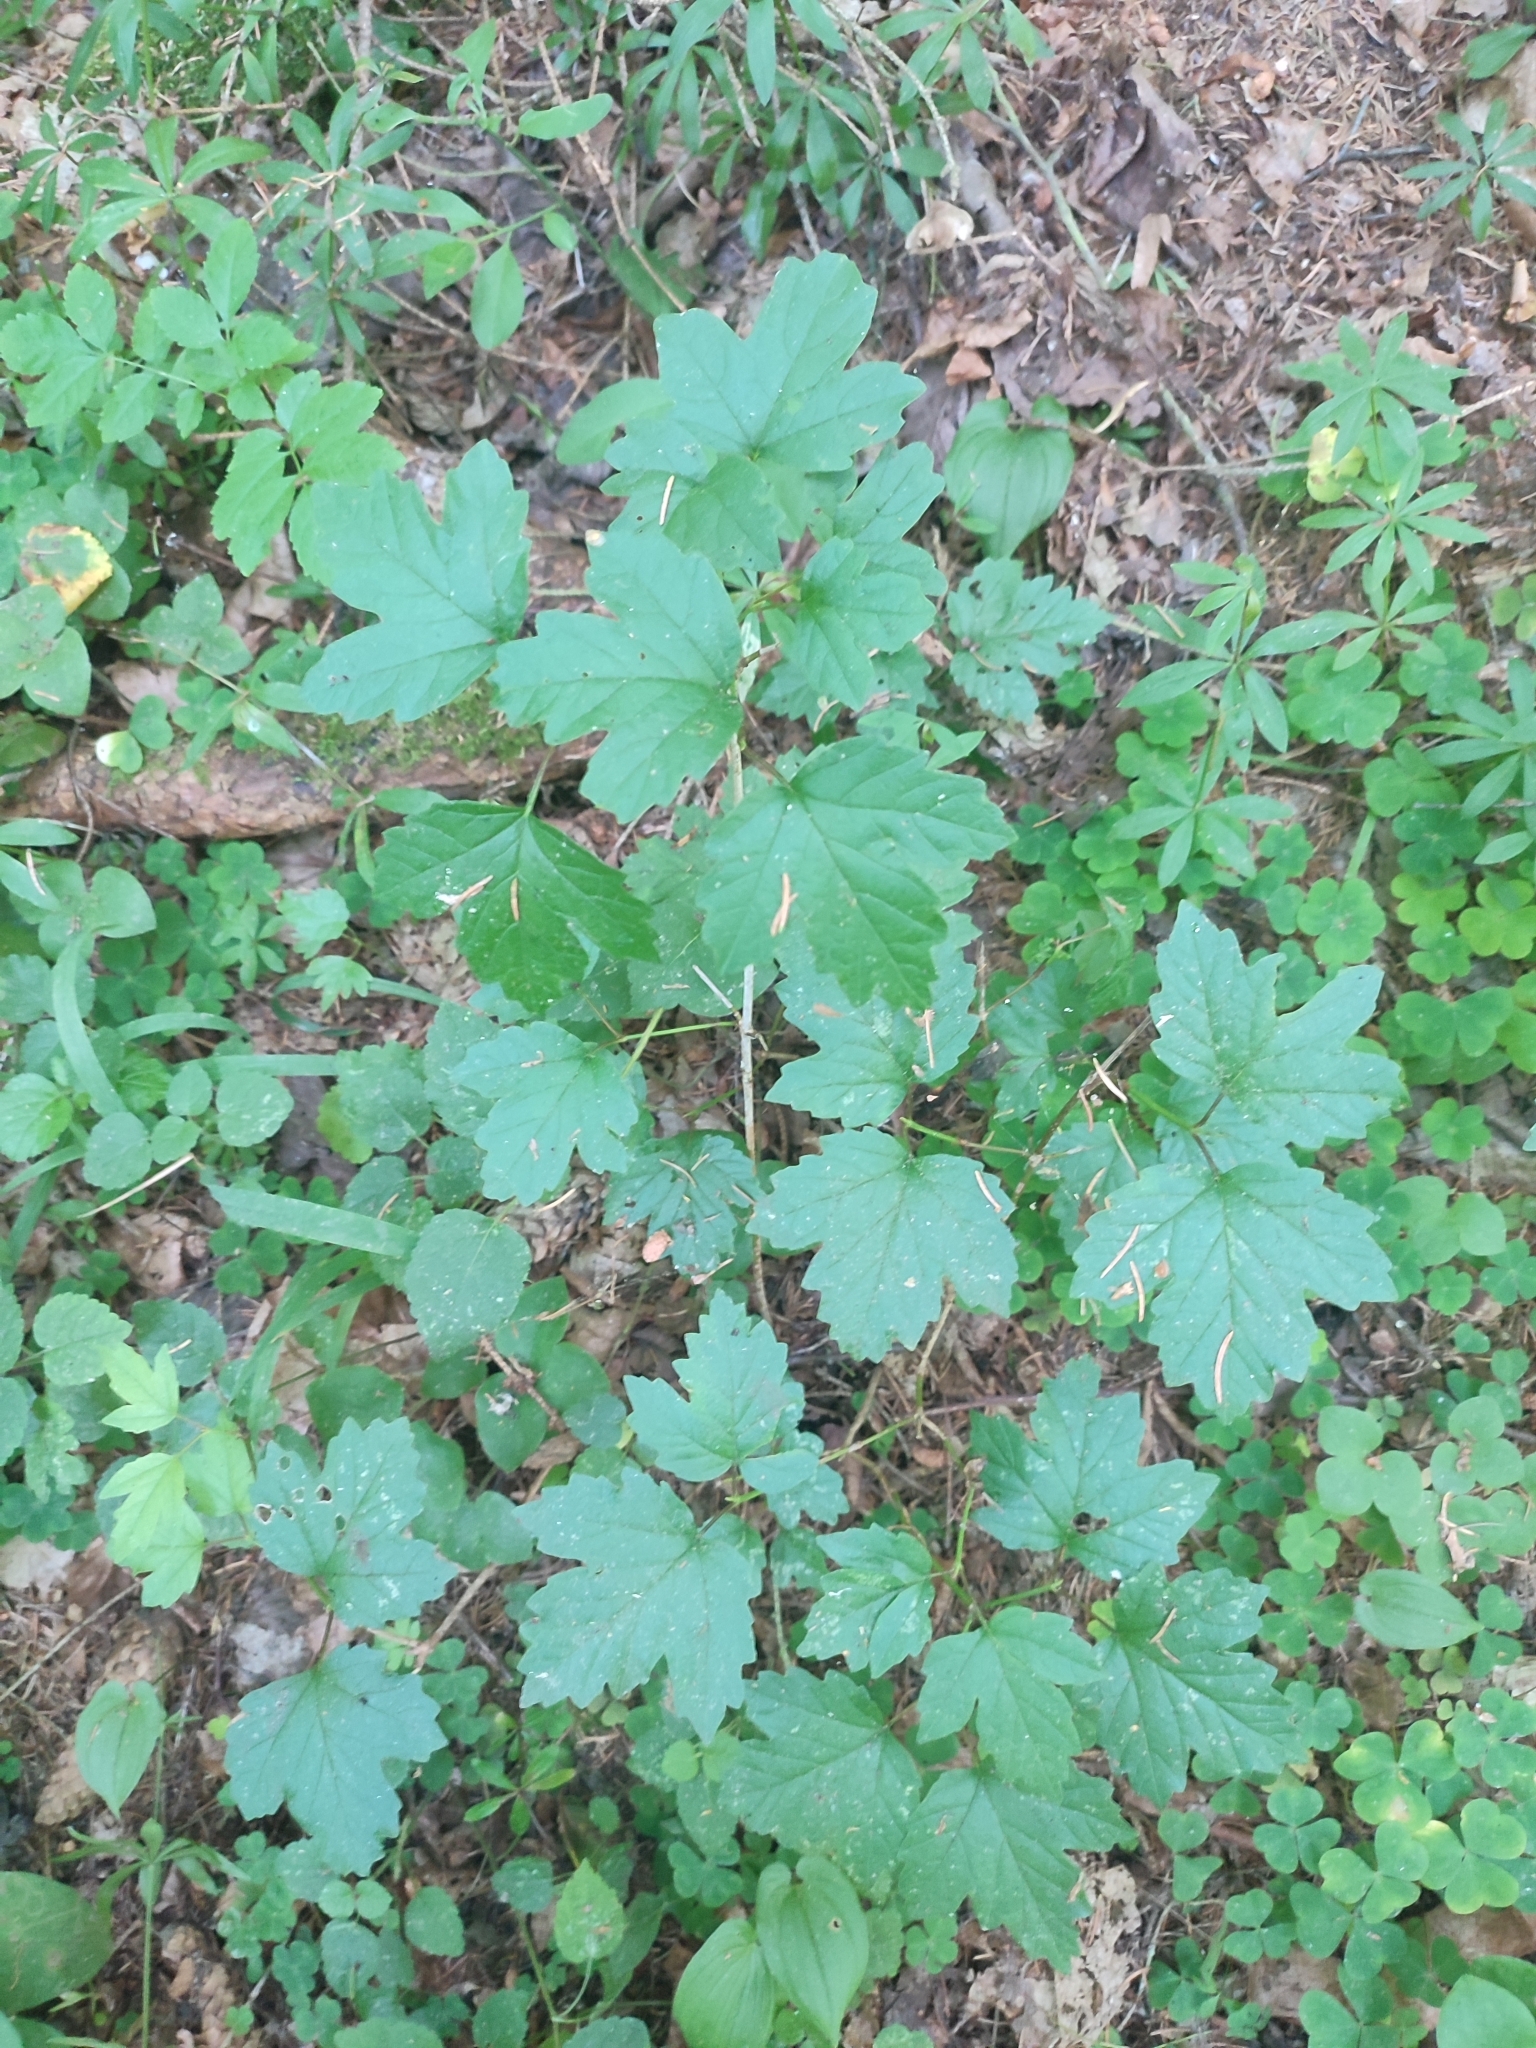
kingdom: Plantae
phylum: Tracheophyta
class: Magnoliopsida
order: Dipsacales
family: Viburnaceae
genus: Viburnum
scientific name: Viburnum opulus
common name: Guelder-rose
